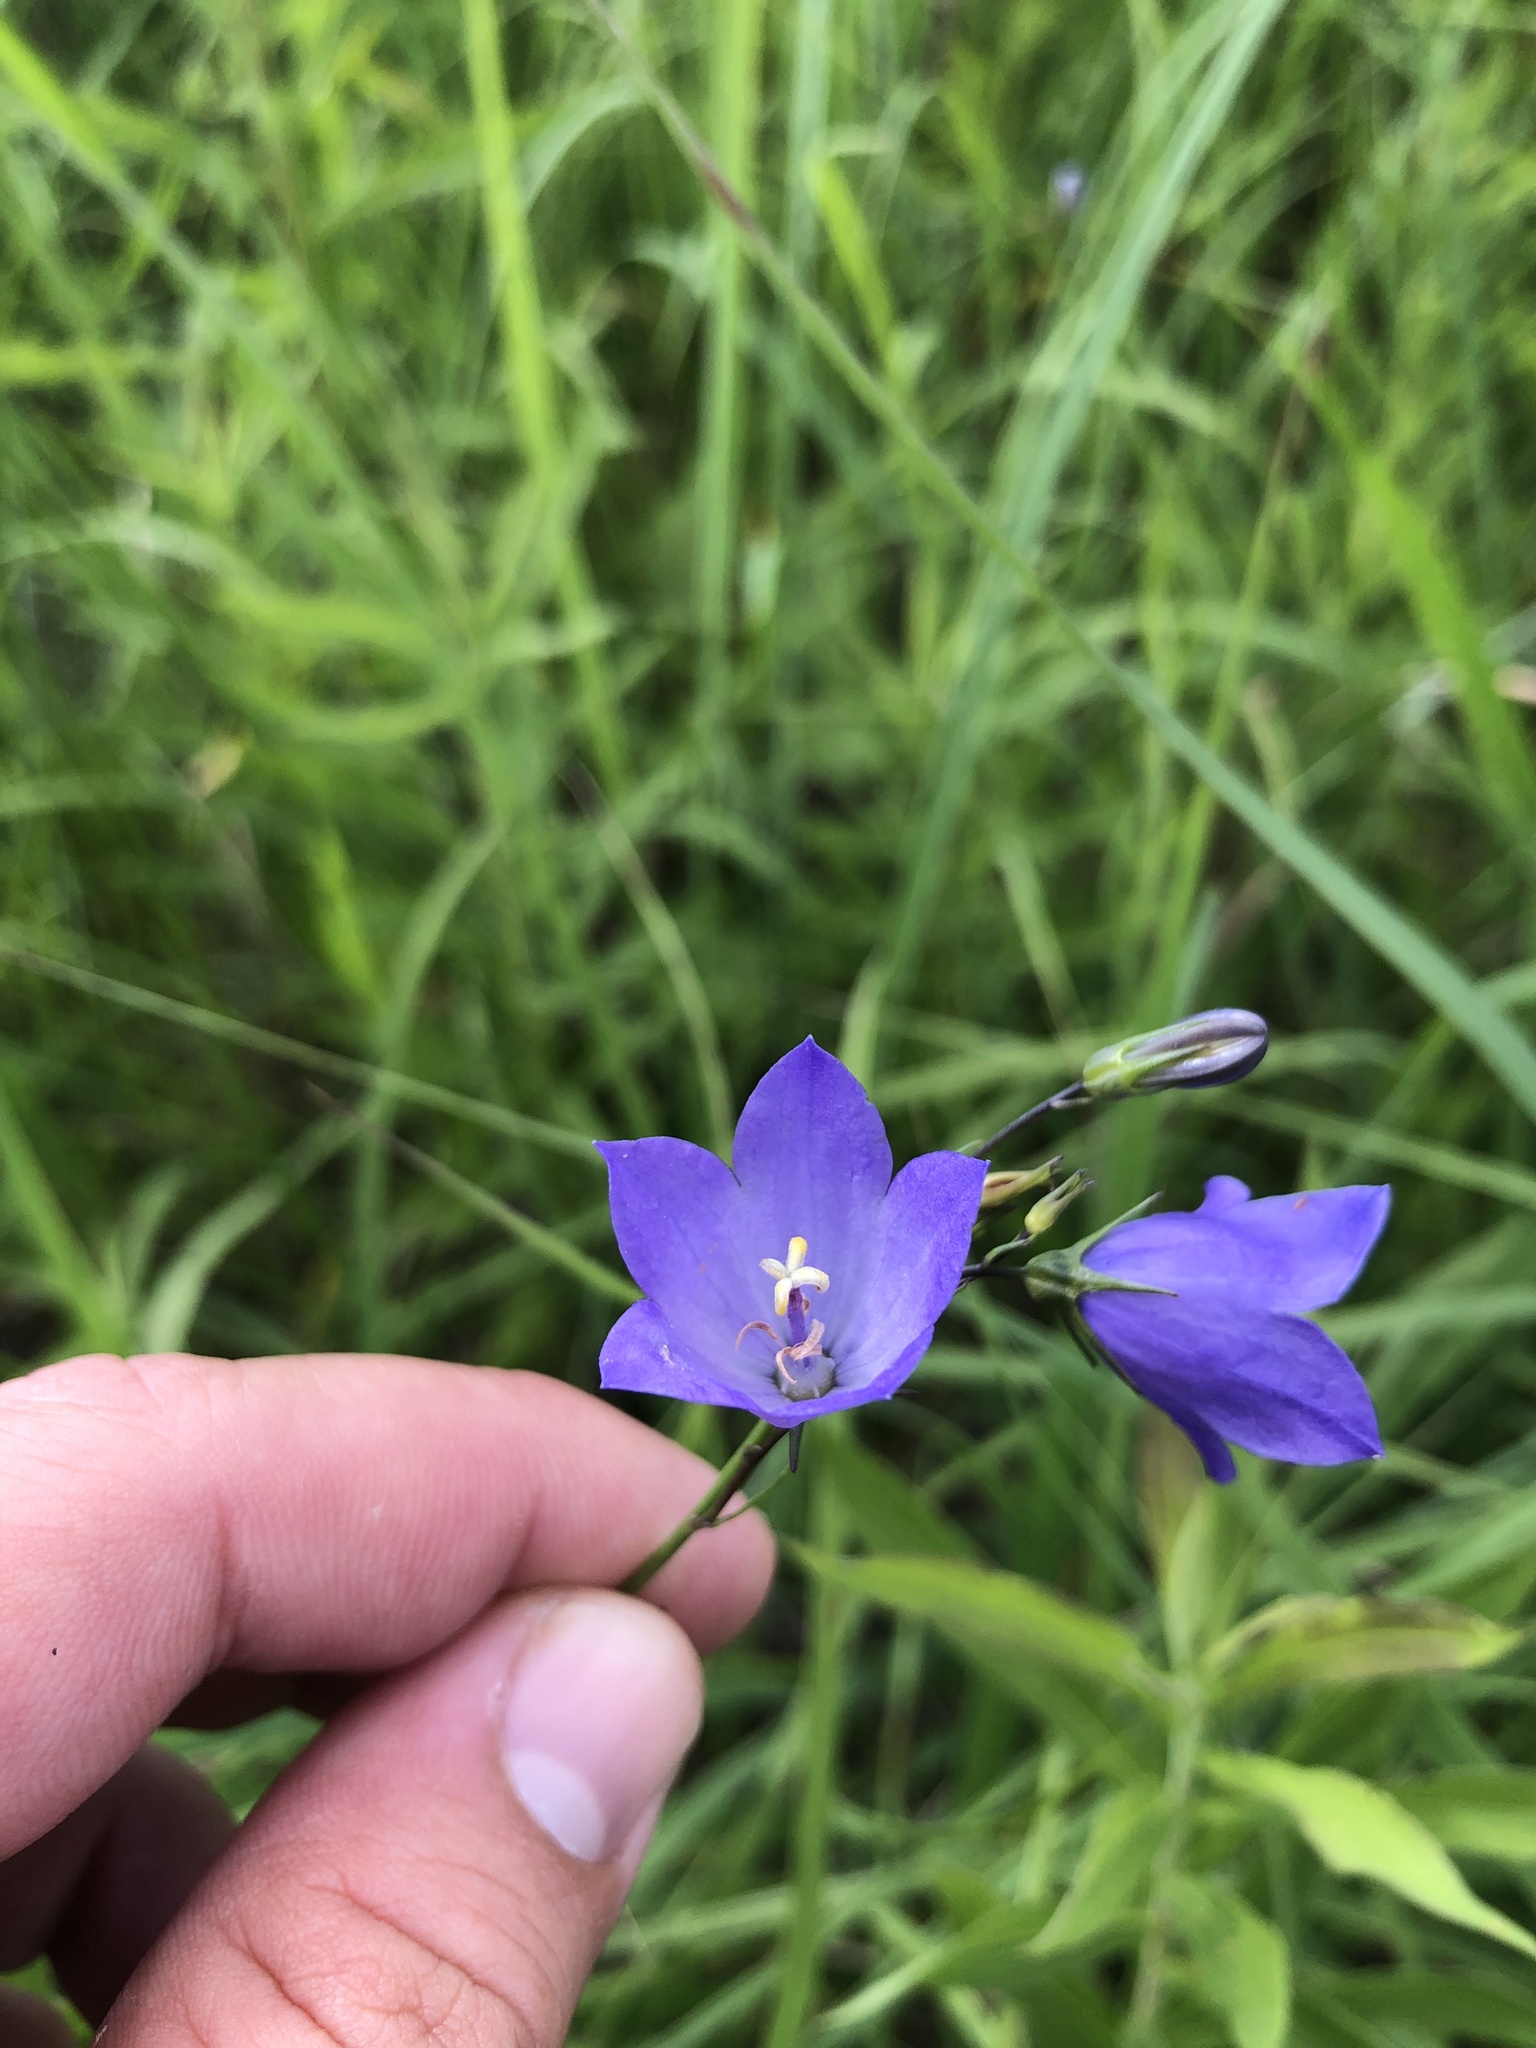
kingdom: Plantae
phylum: Tracheophyta
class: Magnoliopsida
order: Asterales
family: Campanulaceae
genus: Campanula
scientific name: Campanula intercedens
